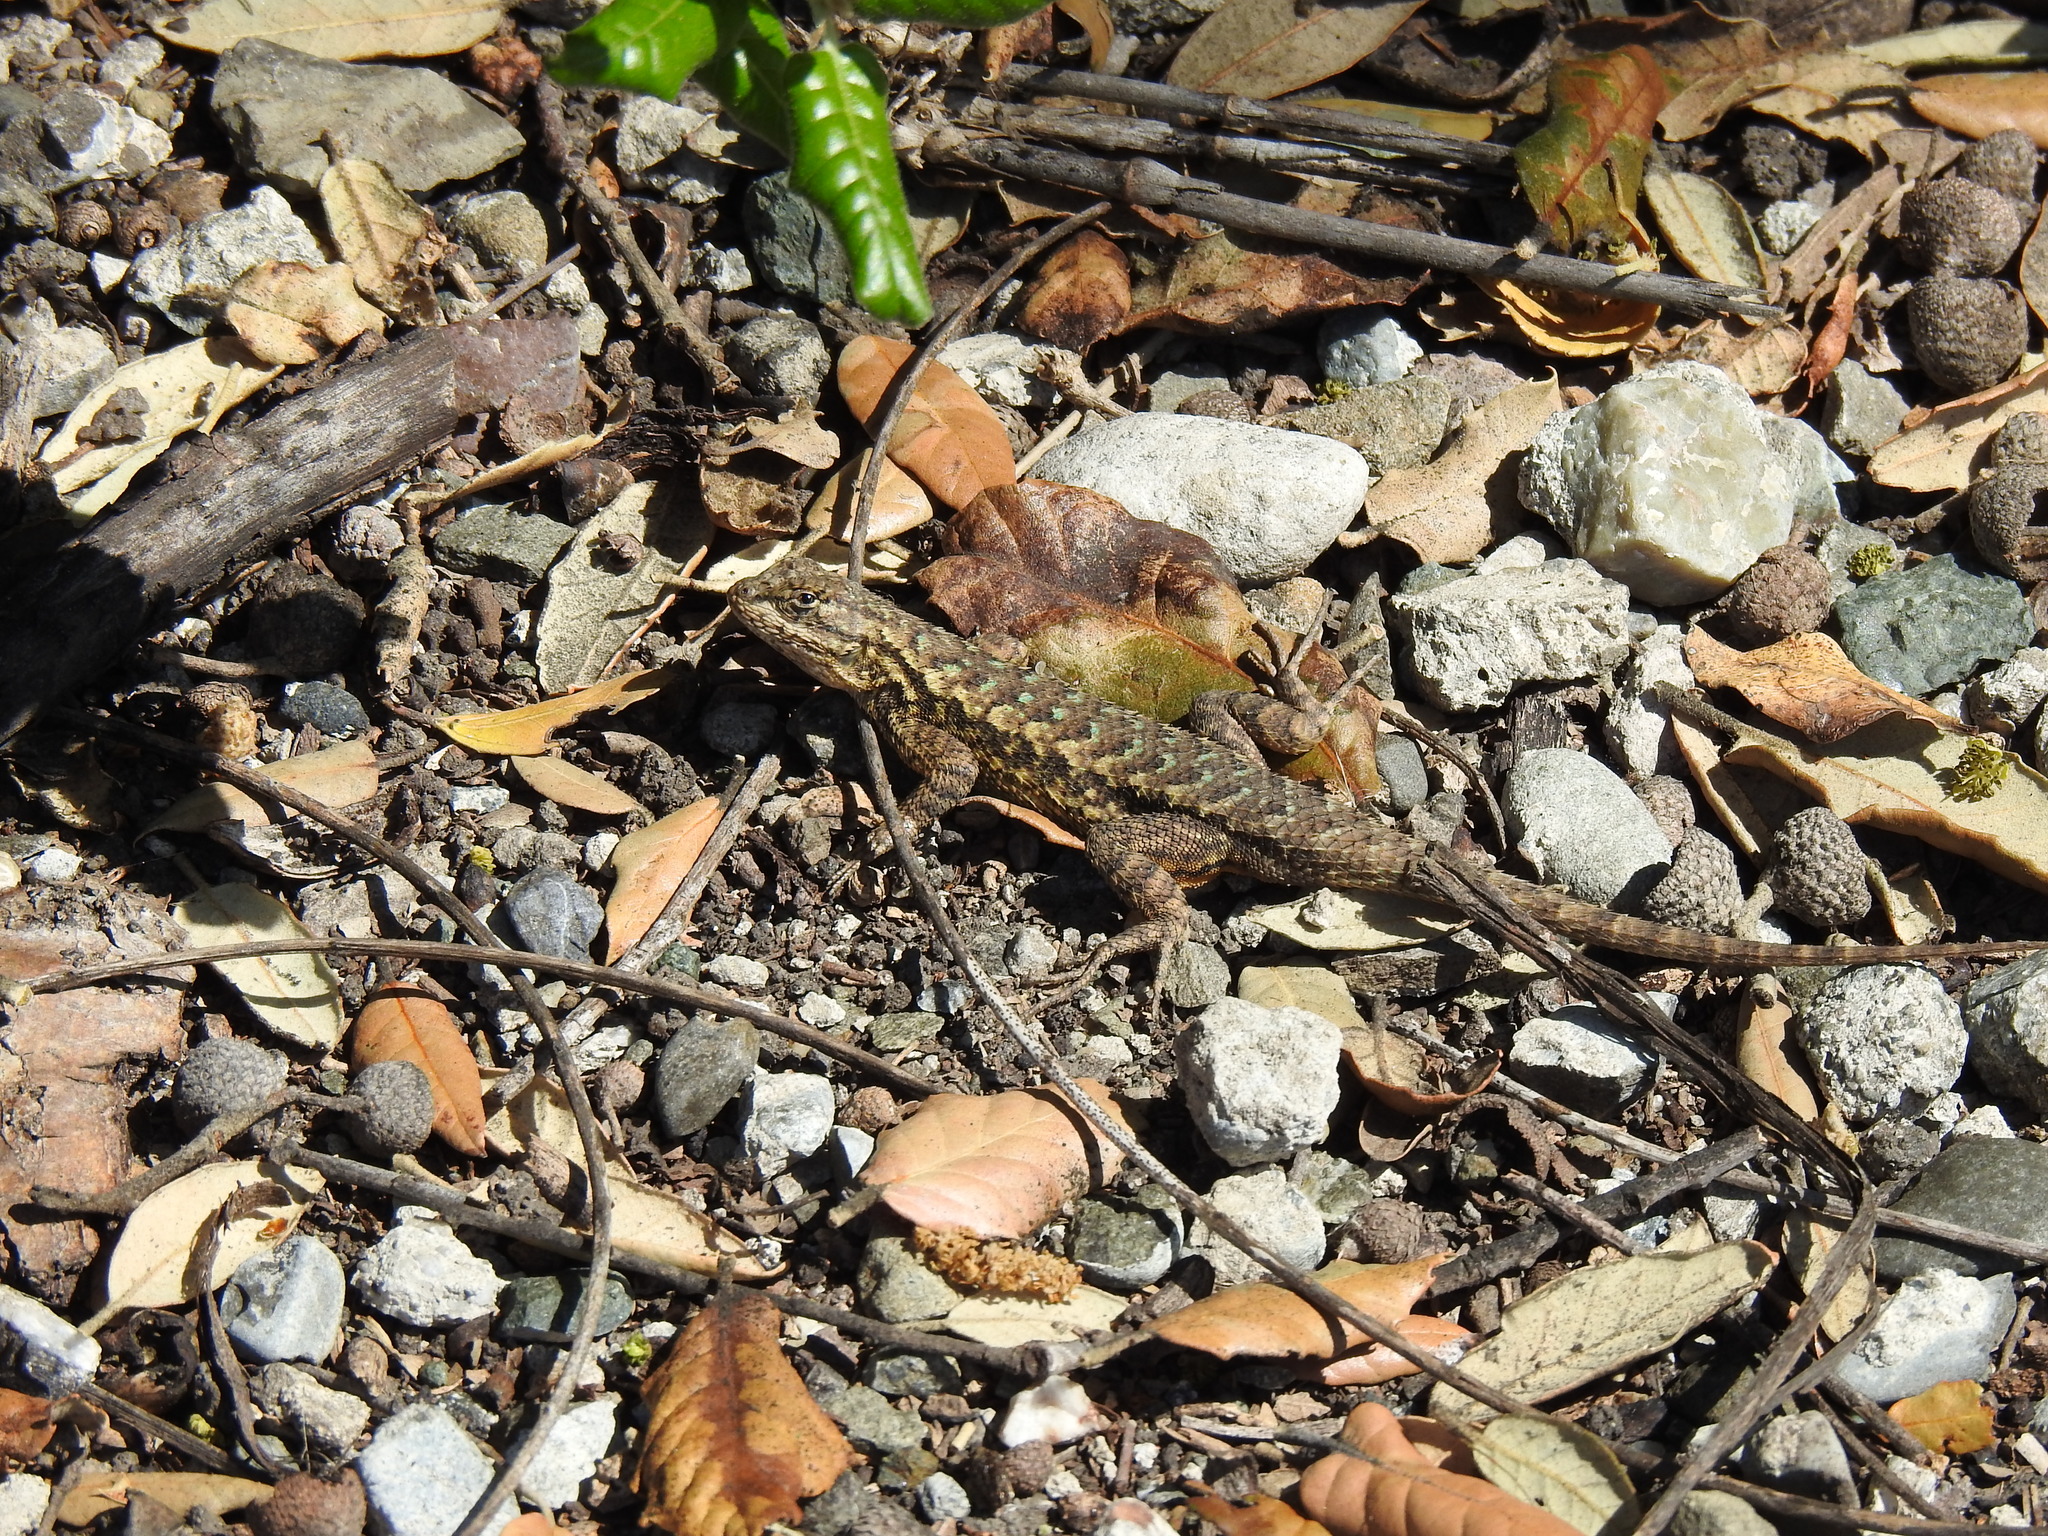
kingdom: Animalia
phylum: Chordata
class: Squamata
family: Phrynosomatidae
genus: Sceloporus
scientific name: Sceloporus occidentalis
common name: Western fence lizard
